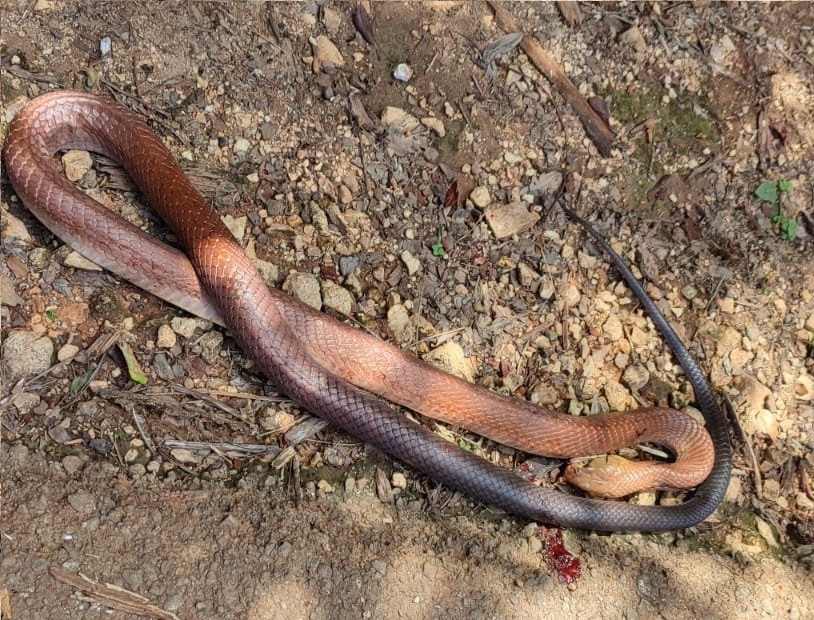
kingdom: Animalia
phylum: Chordata
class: Squamata
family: Colubridae
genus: Drymarchon
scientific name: Drymarchon melanurus
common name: Central american indigo snake
